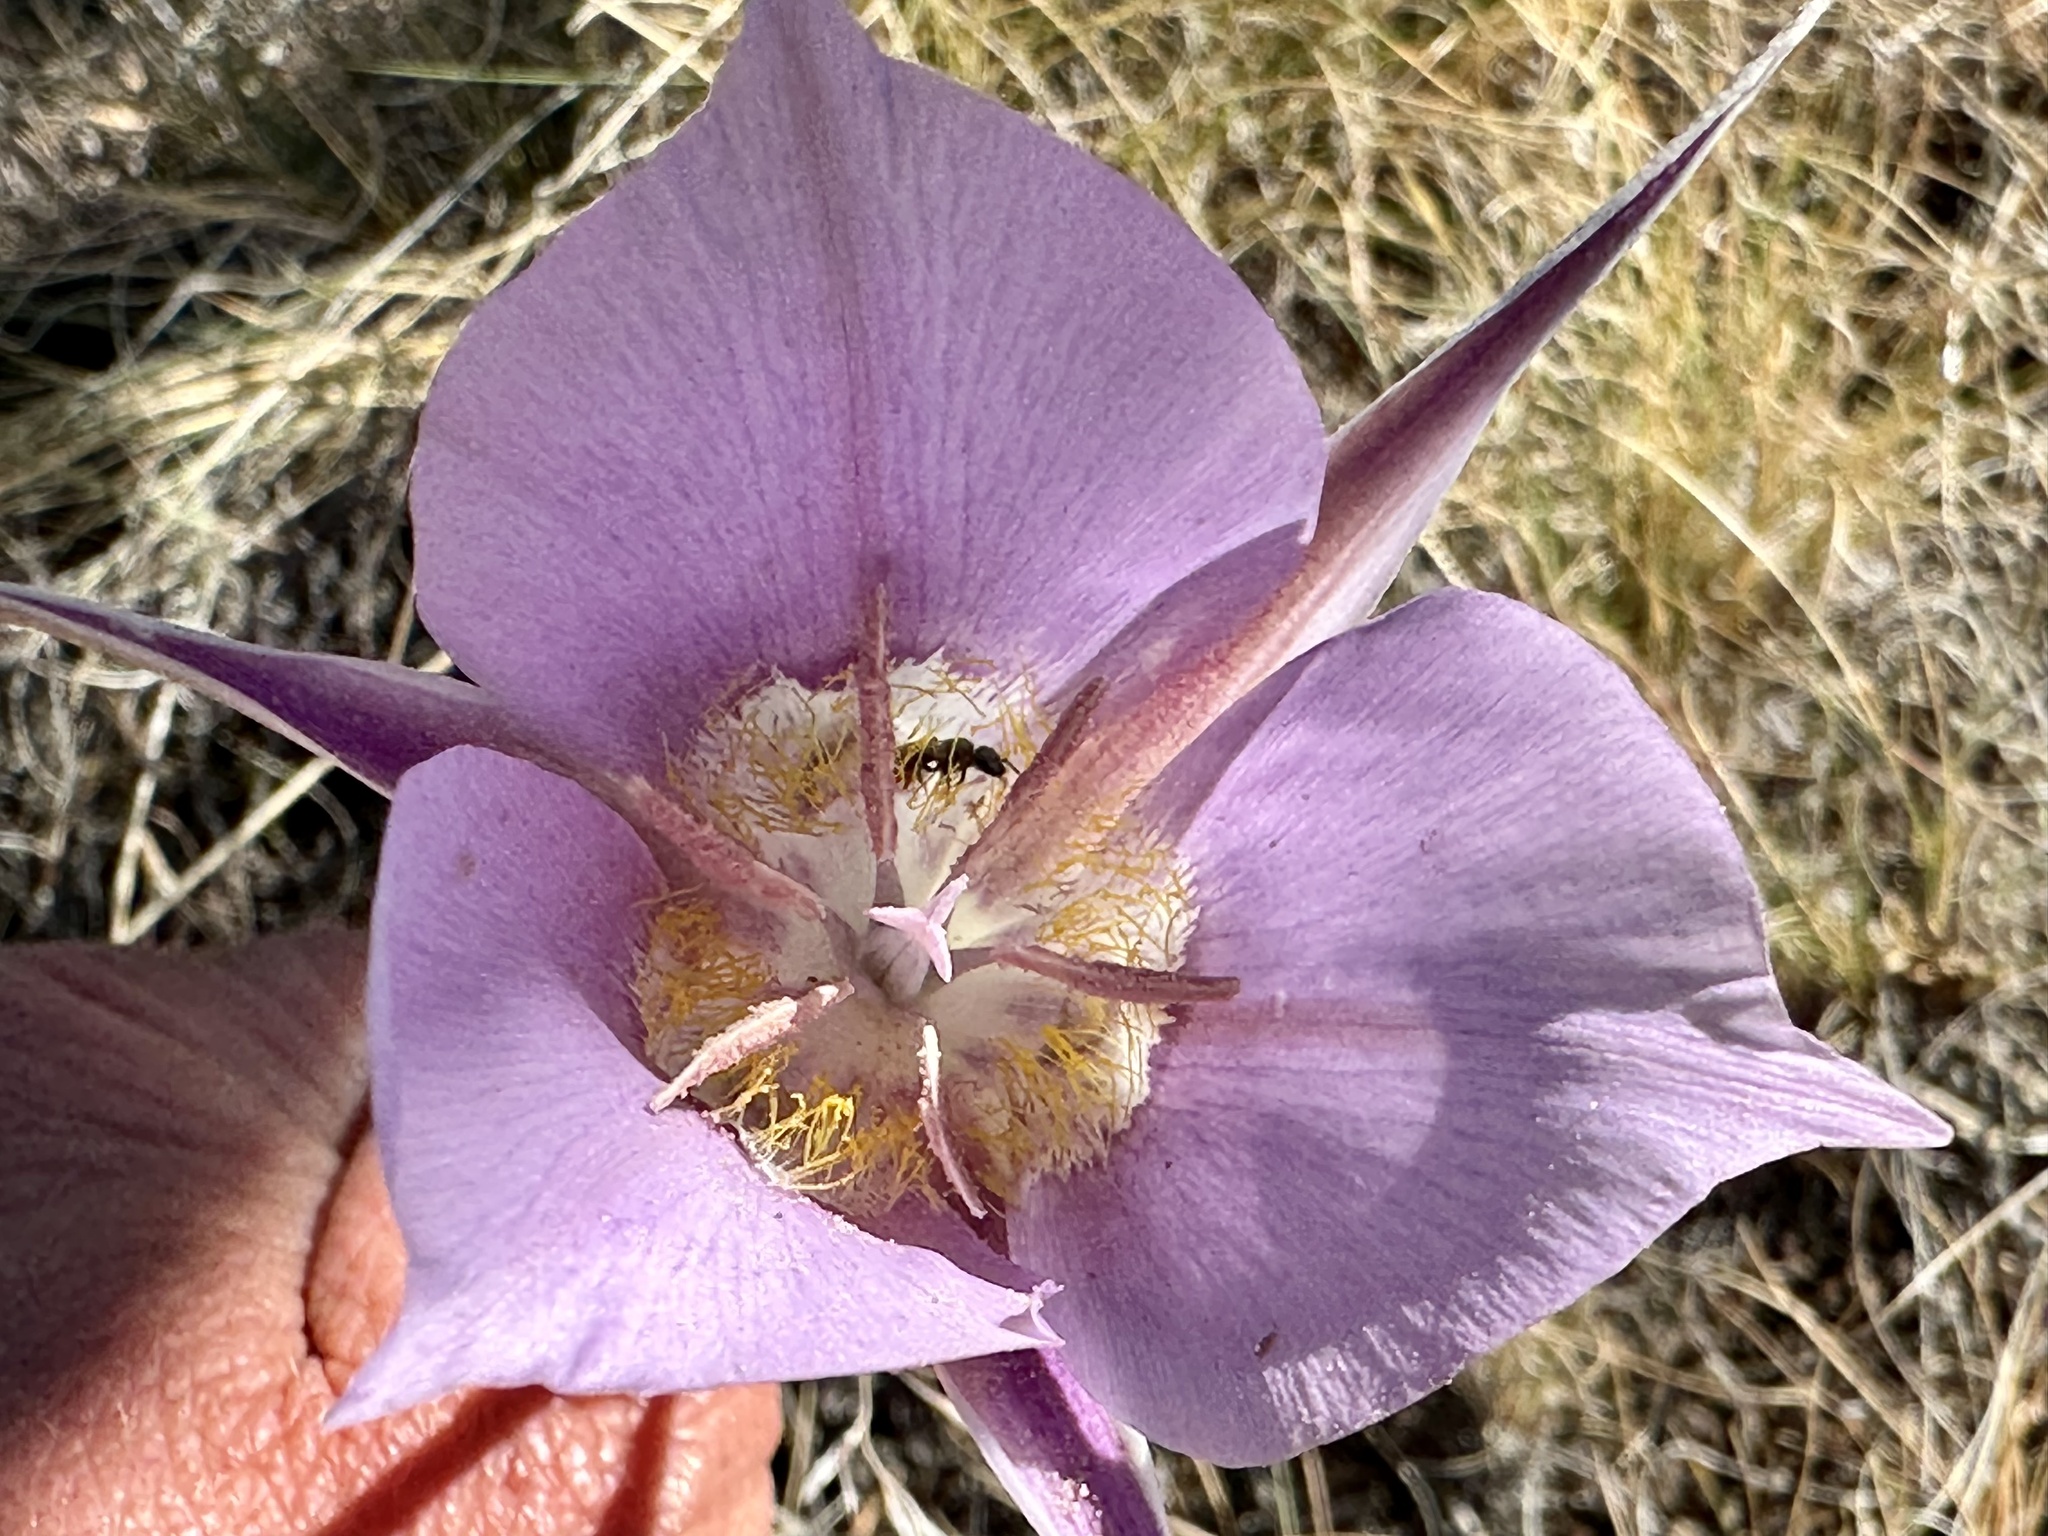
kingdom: Plantae
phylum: Tracheophyta
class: Liliopsida
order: Liliales
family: Liliaceae
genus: Calochortus
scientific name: Calochortus macrocarpus
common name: Green-band mariposa lily
